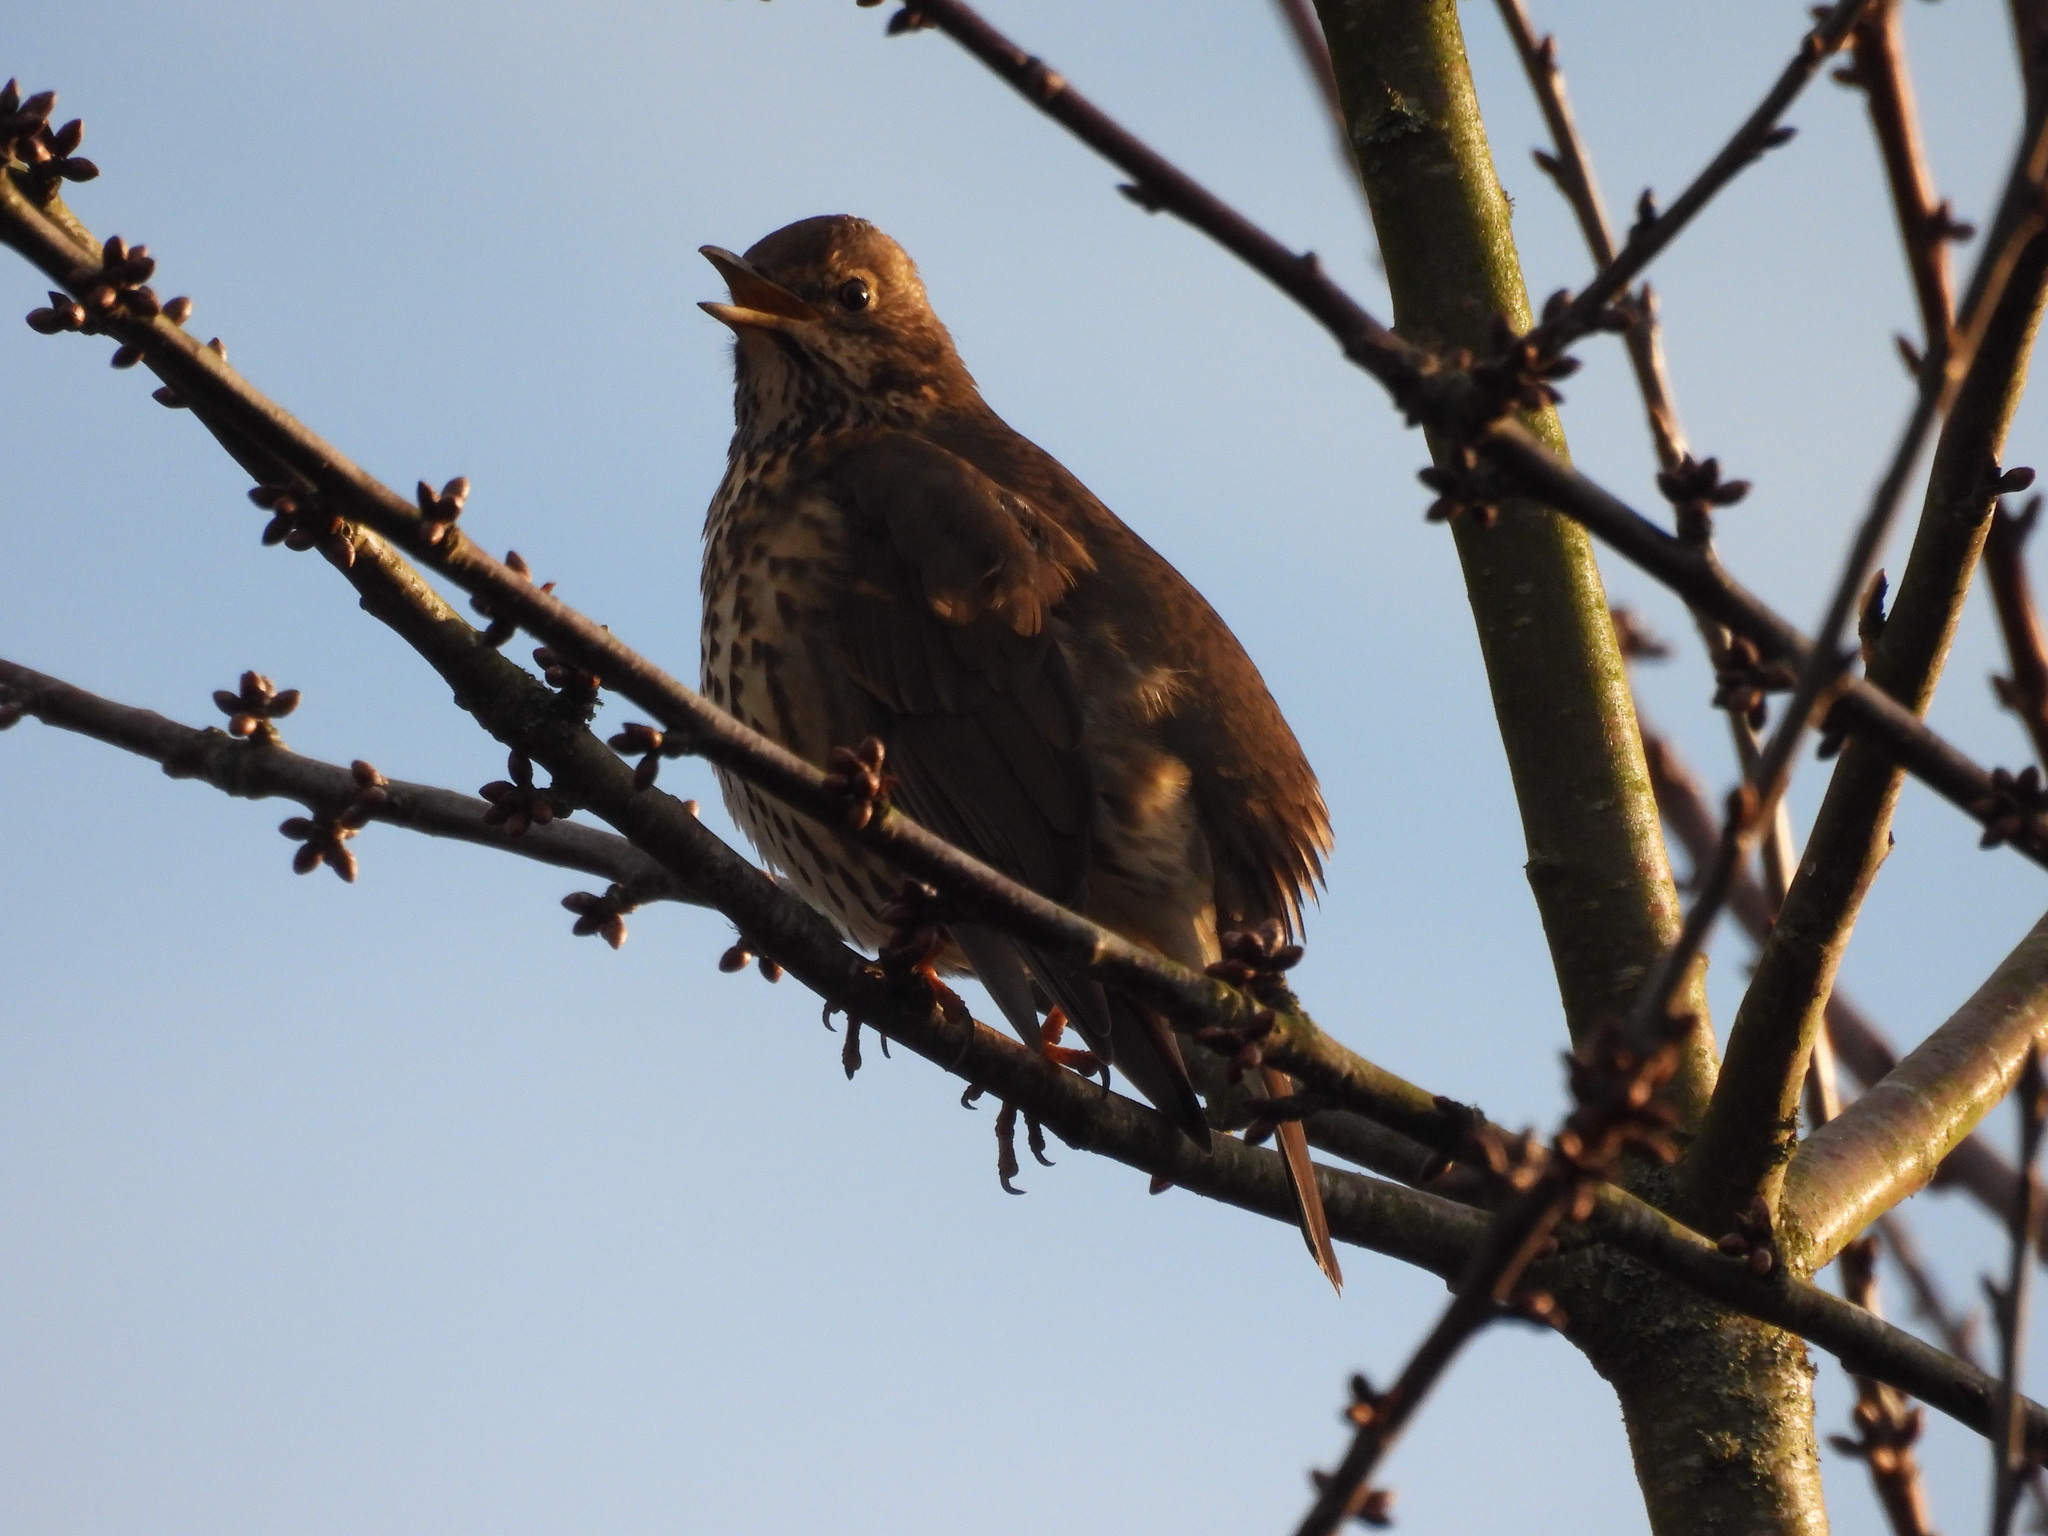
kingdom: Animalia
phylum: Chordata
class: Aves
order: Passeriformes
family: Turdidae
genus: Turdus
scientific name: Turdus philomelos
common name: Song thrush
